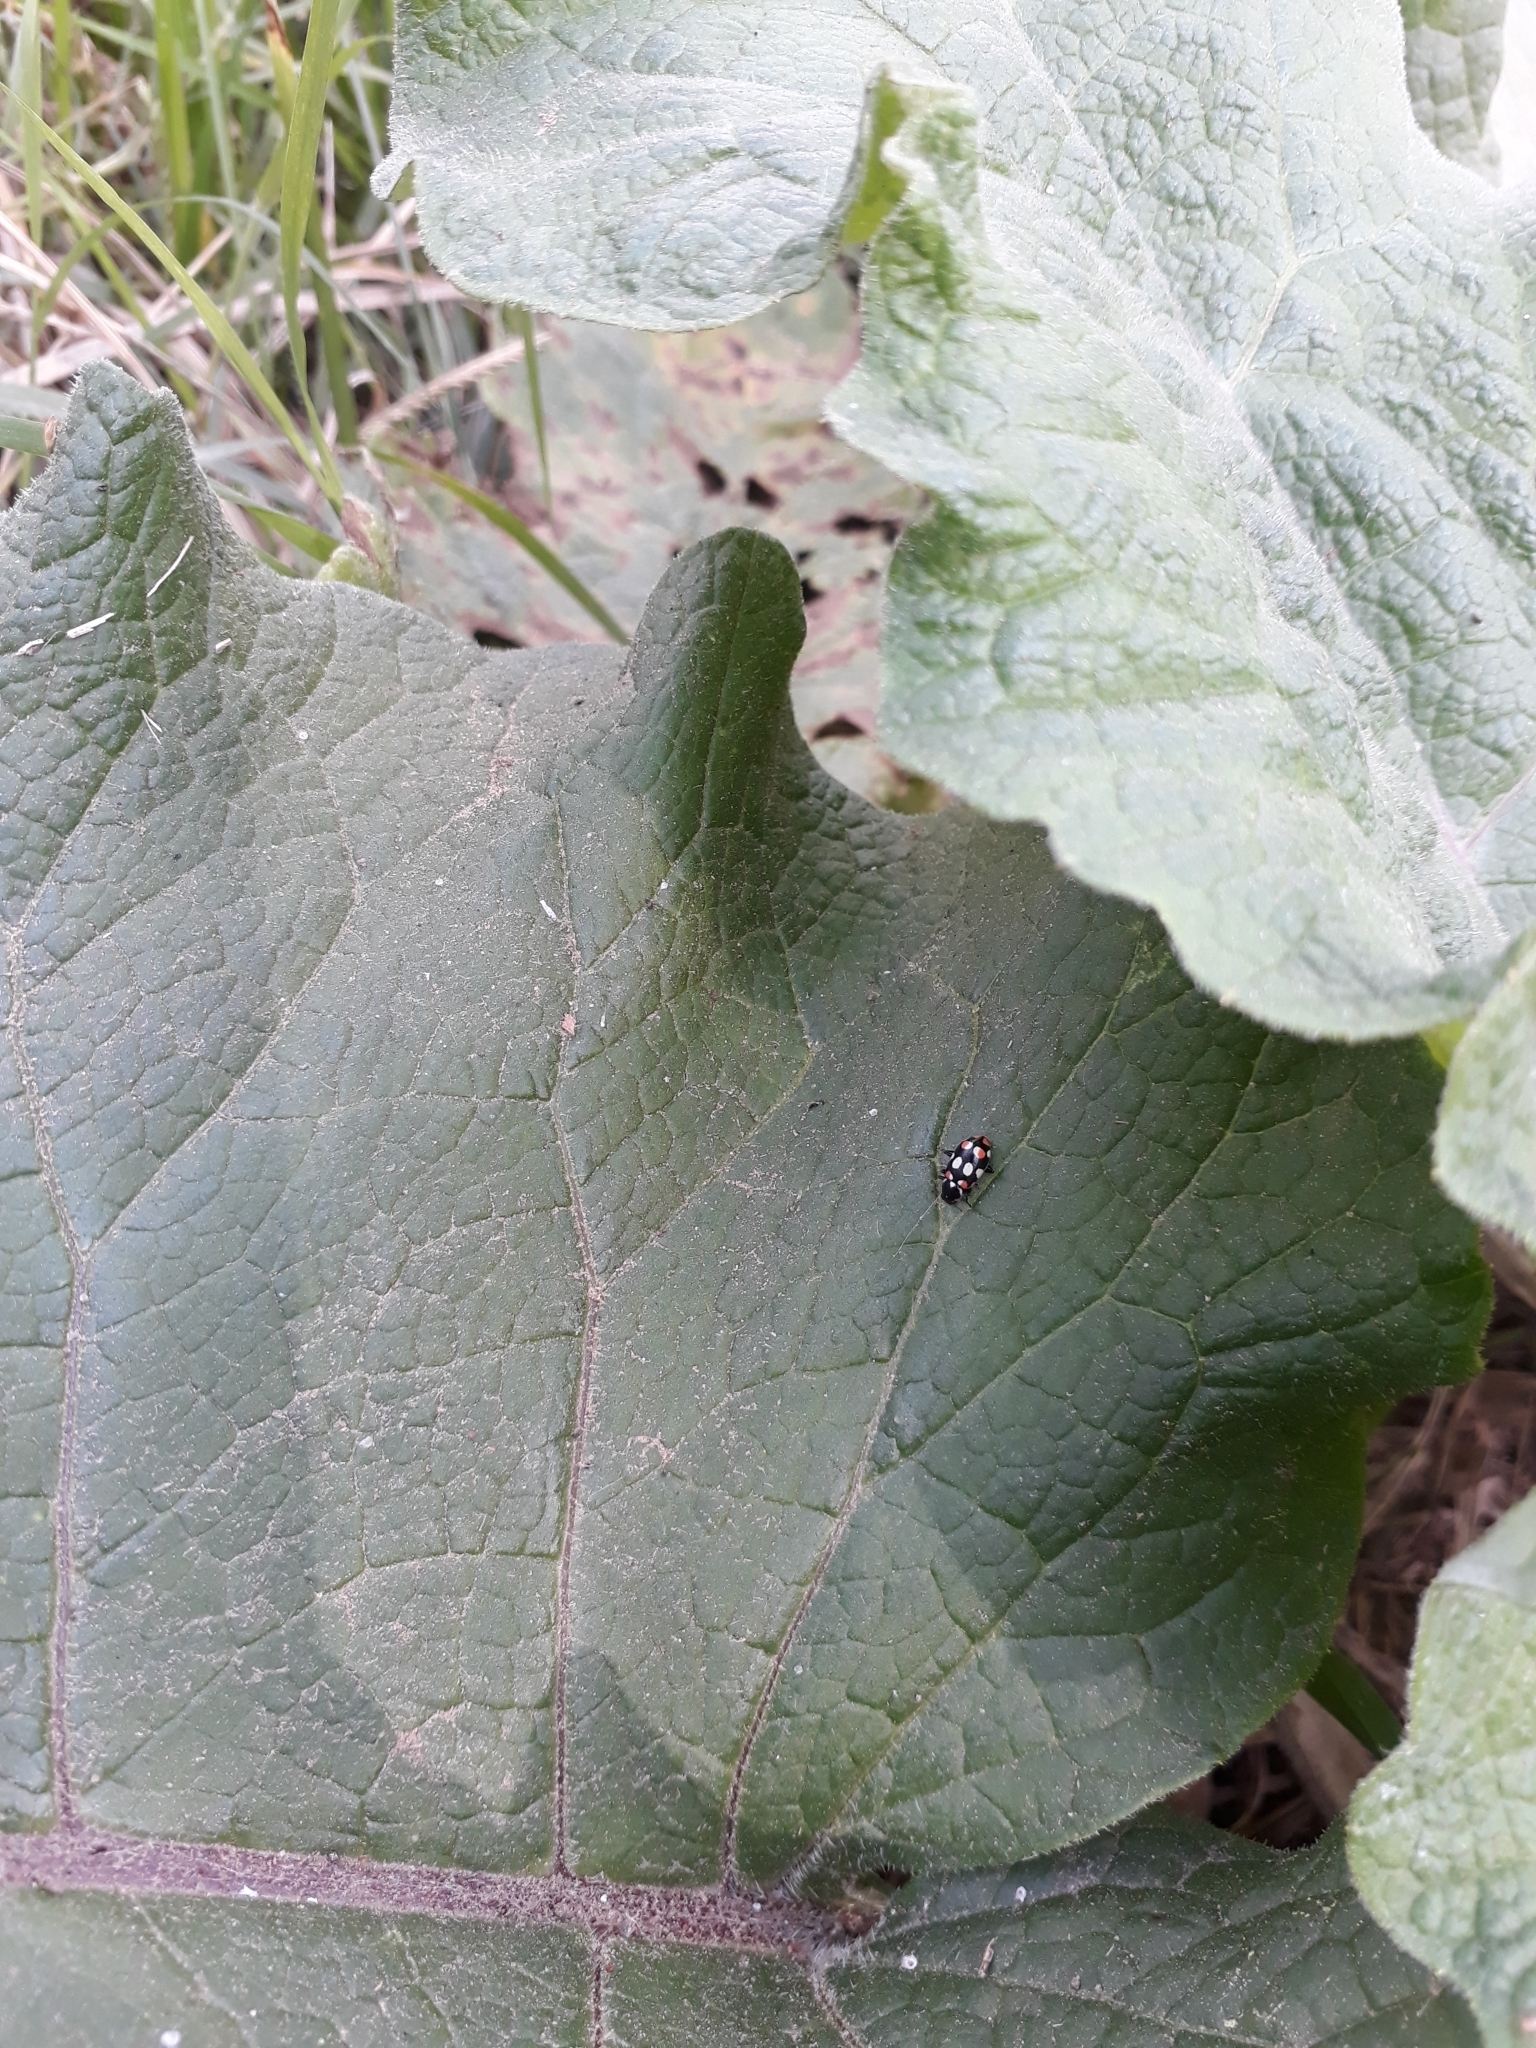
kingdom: Animalia
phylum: Arthropoda
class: Insecta
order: Coleoptera
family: Coccinellidae
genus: Eriopis
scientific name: Eriopis connexa
